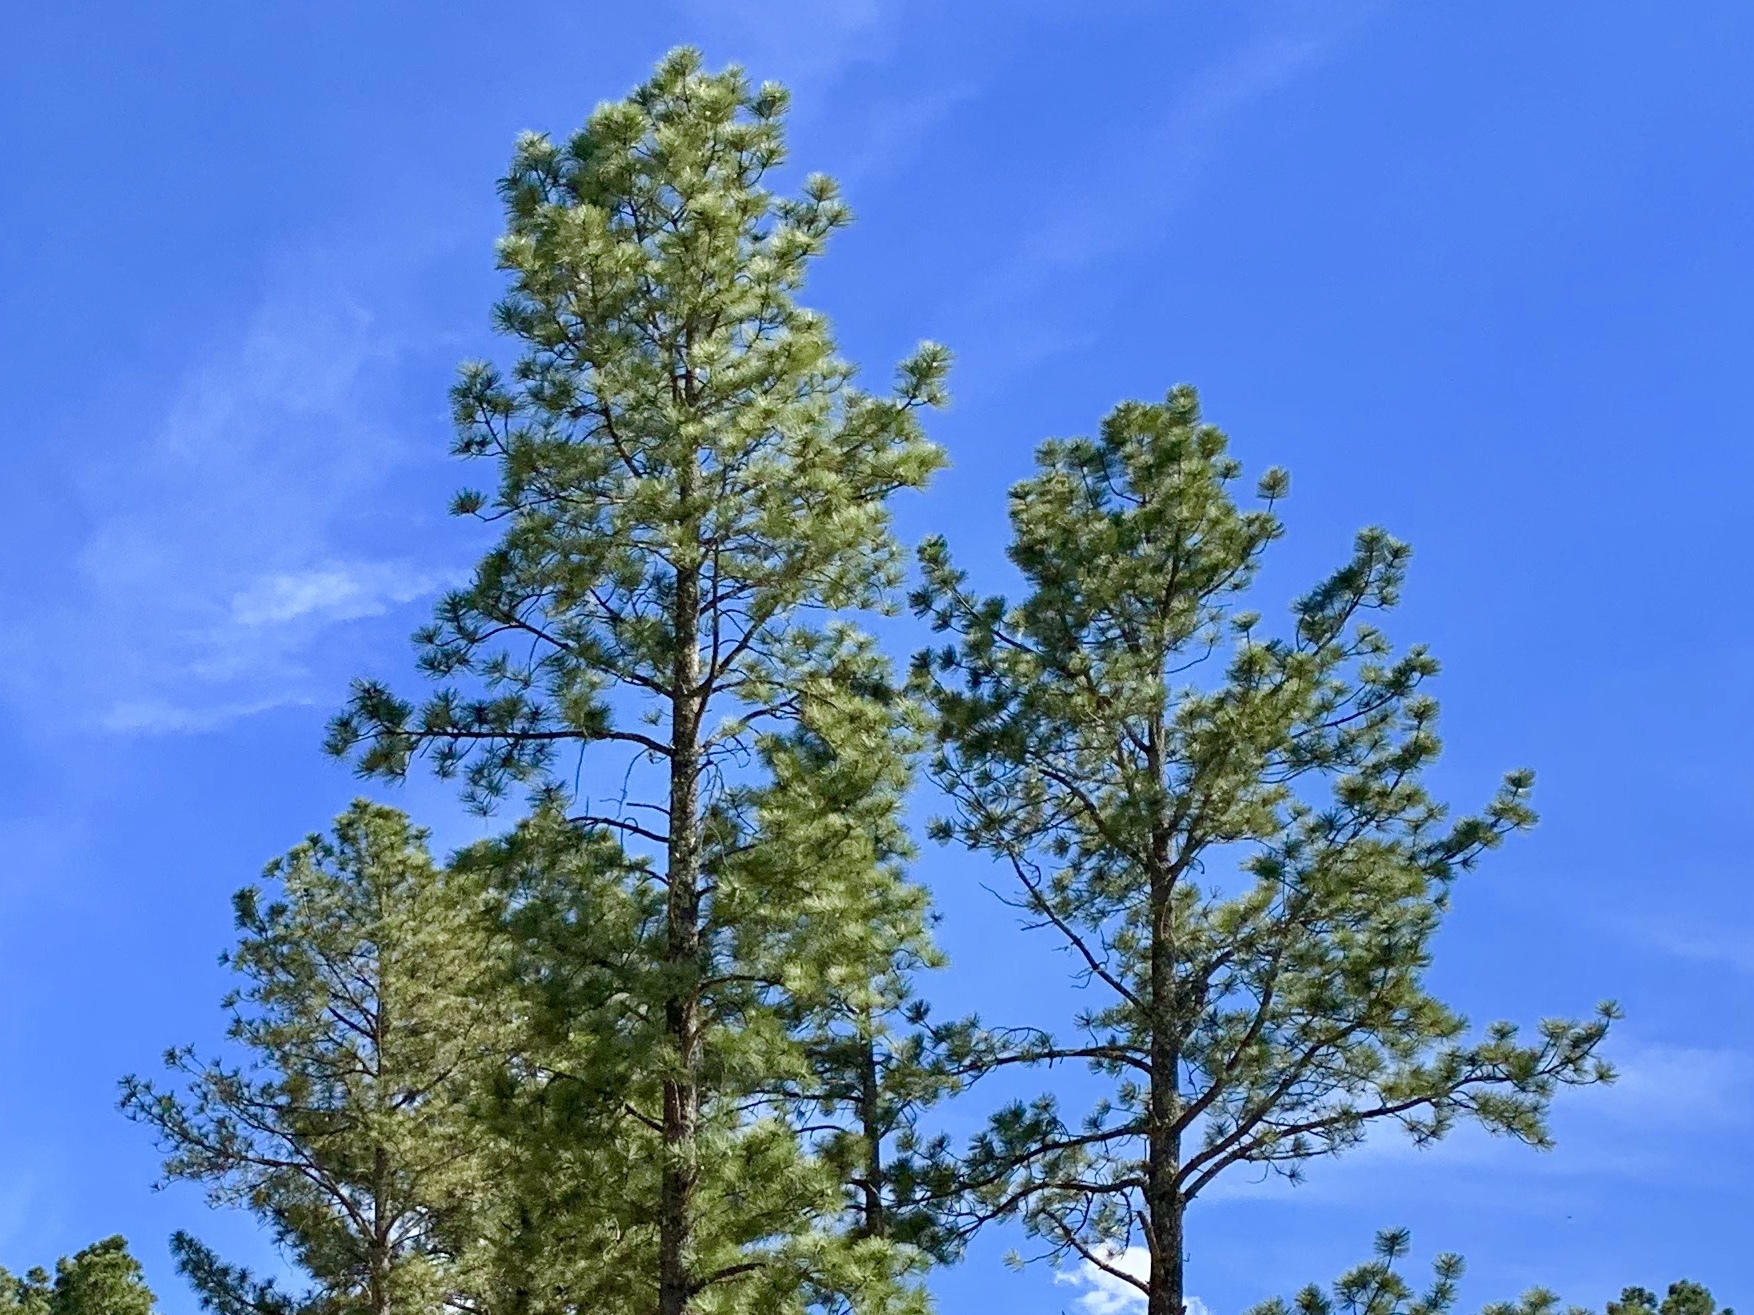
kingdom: Plantae
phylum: Tracheophyta
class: Pinopsida
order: Pinales
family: Pinaceae
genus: Pinus
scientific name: Pinus ponderosa
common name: Western yellow-pine
